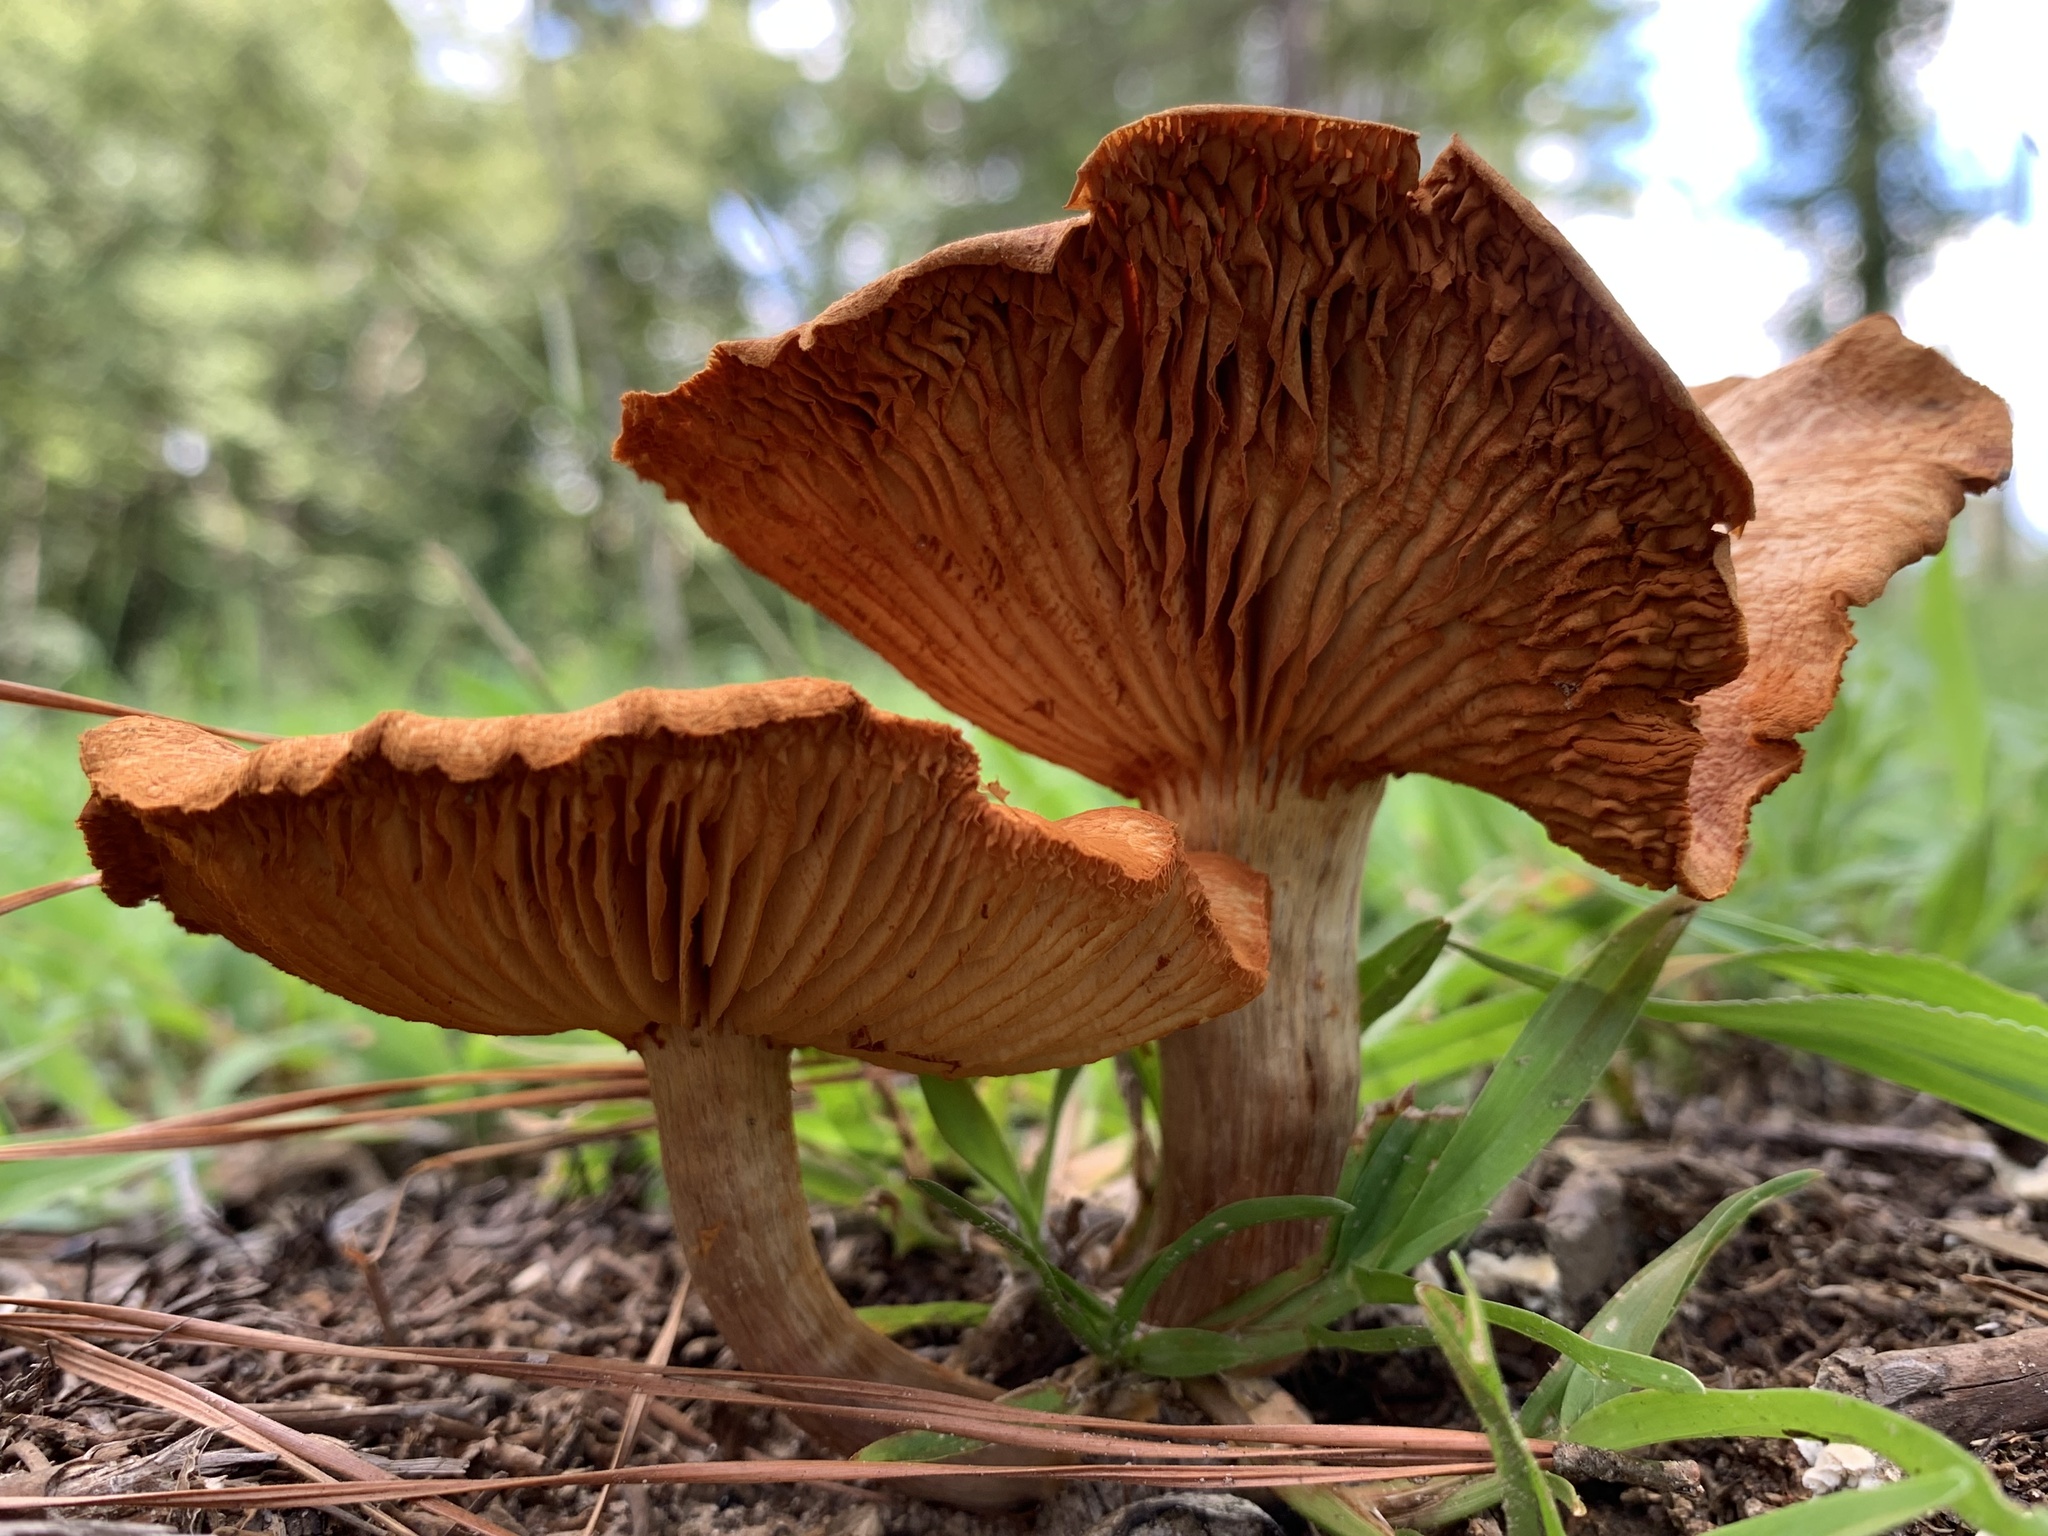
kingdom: Fungi
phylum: Basidiomycota
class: Agaricomycetes
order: Agaricales
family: Hymenogastraceae
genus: Gymnopilus
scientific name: Gymnopilus lepidotus
